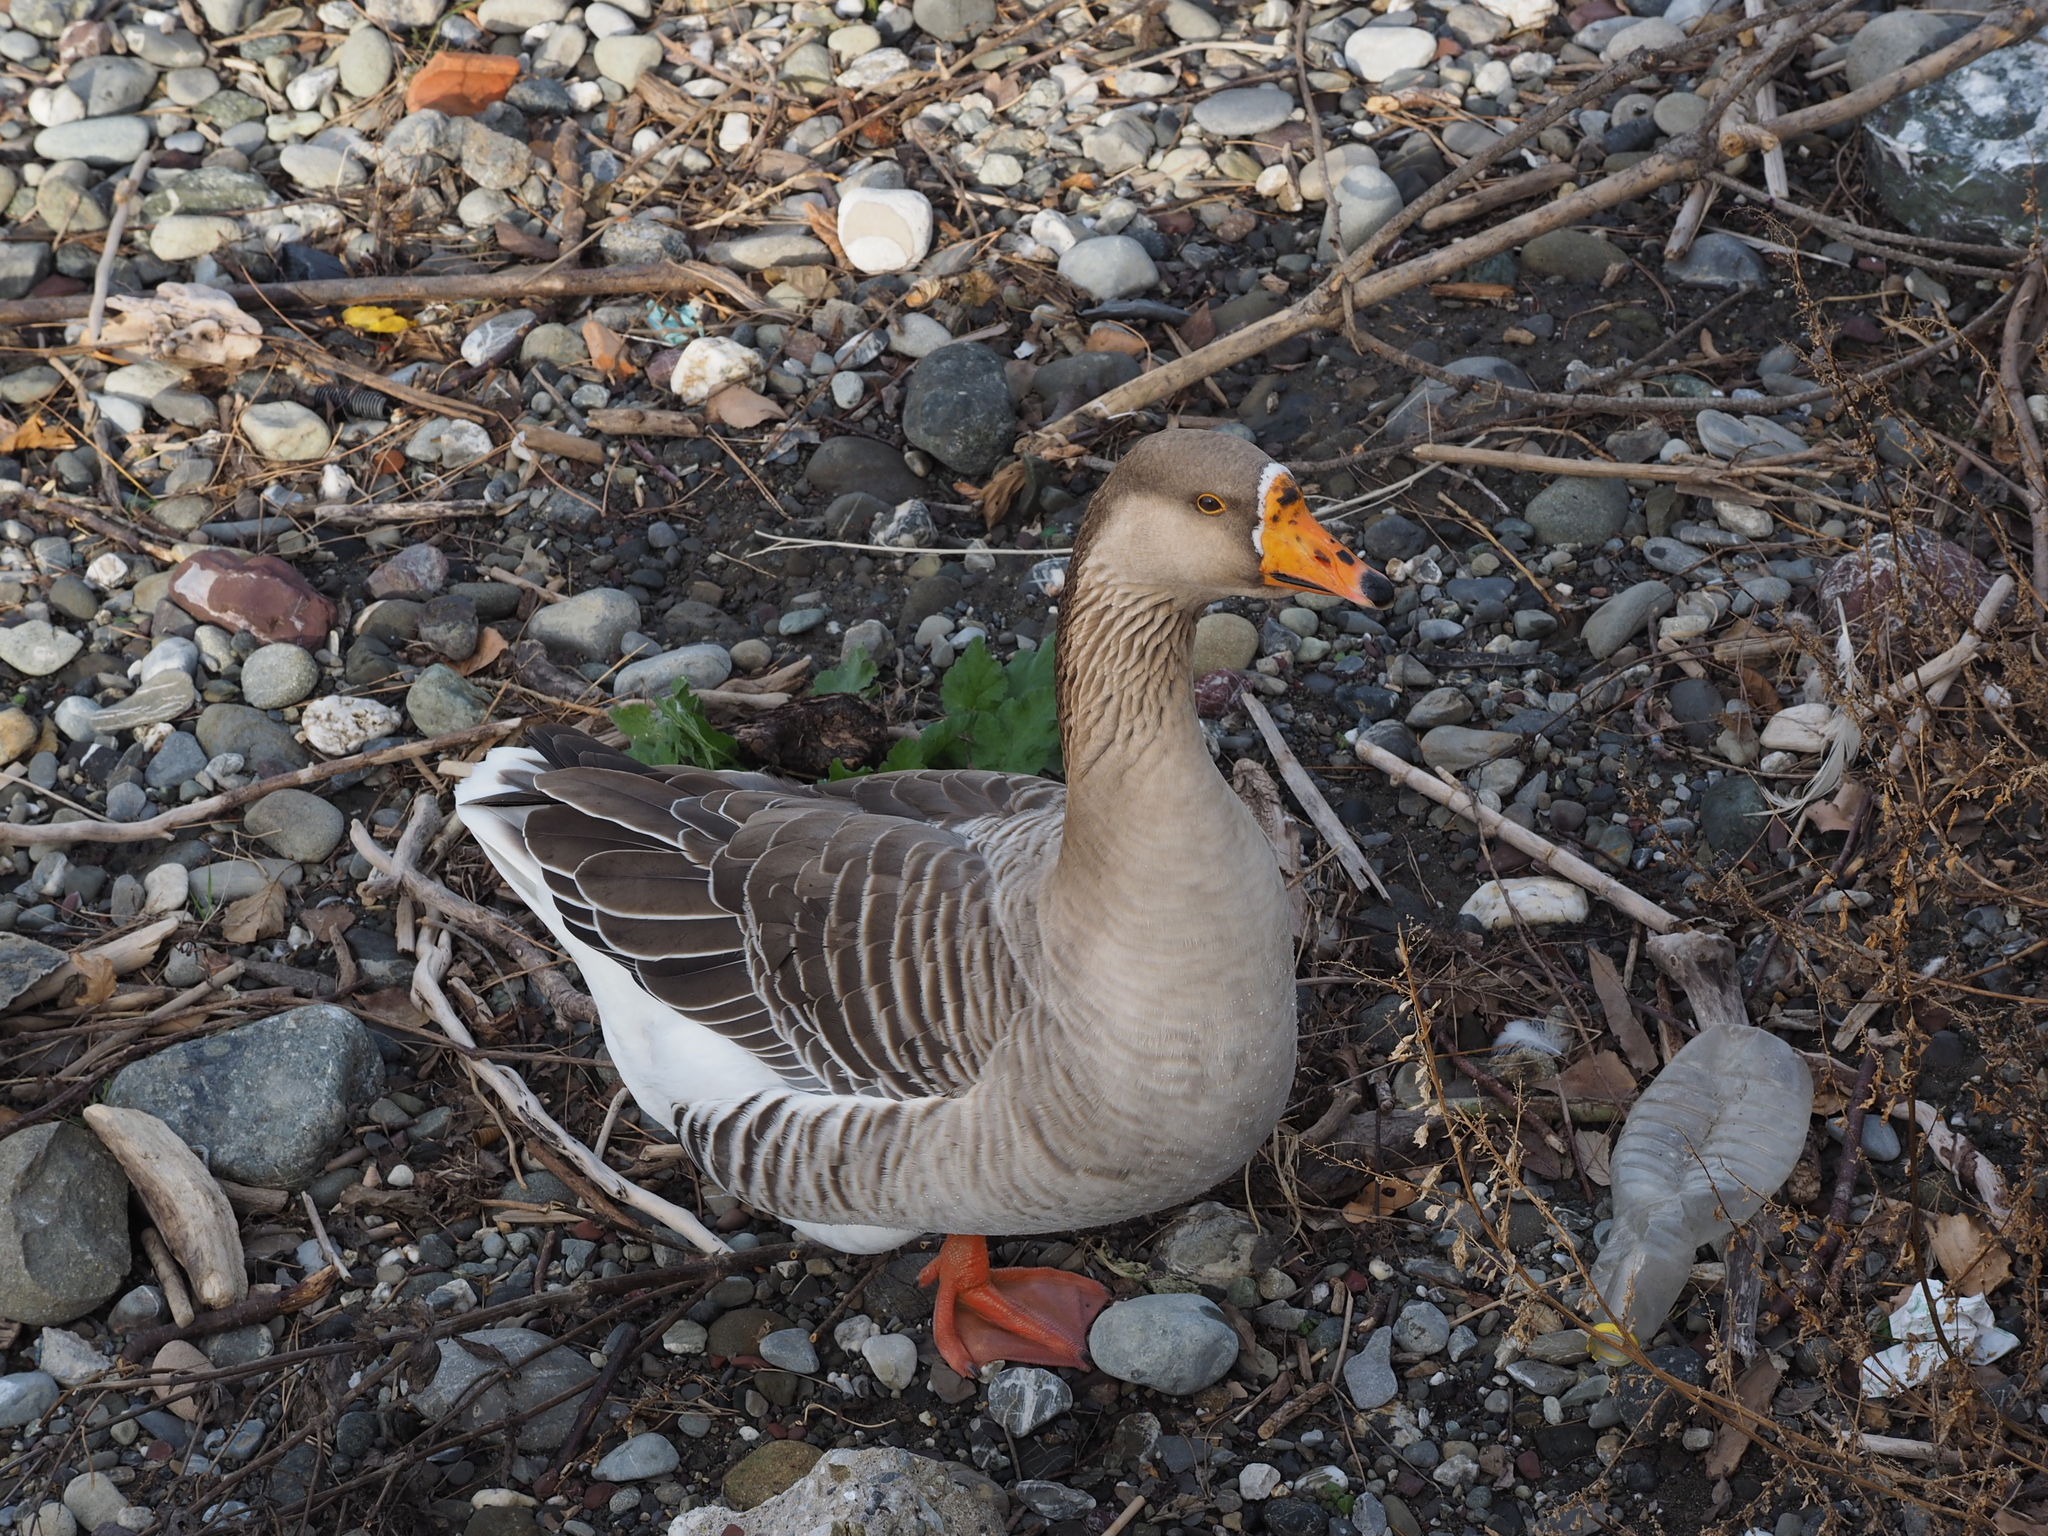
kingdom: Animalia
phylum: Chordata
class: Aves
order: Anseriformes
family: Anatidae
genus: Anser
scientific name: Anser
